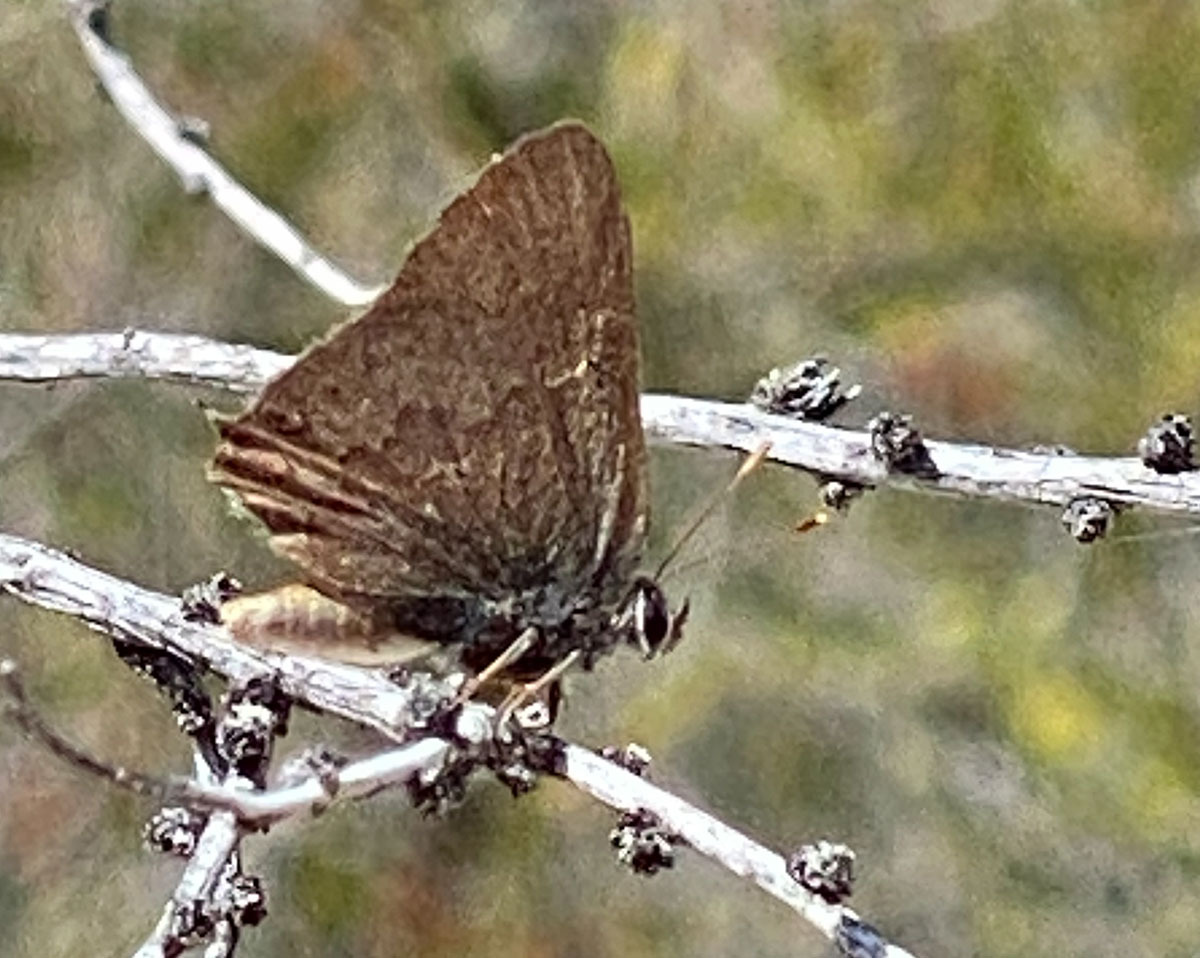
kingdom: Animalia
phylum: Arthropoda
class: Insecta
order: Lepidoptera
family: Lycaenidae
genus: Strymon
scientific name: Strymon saepium
